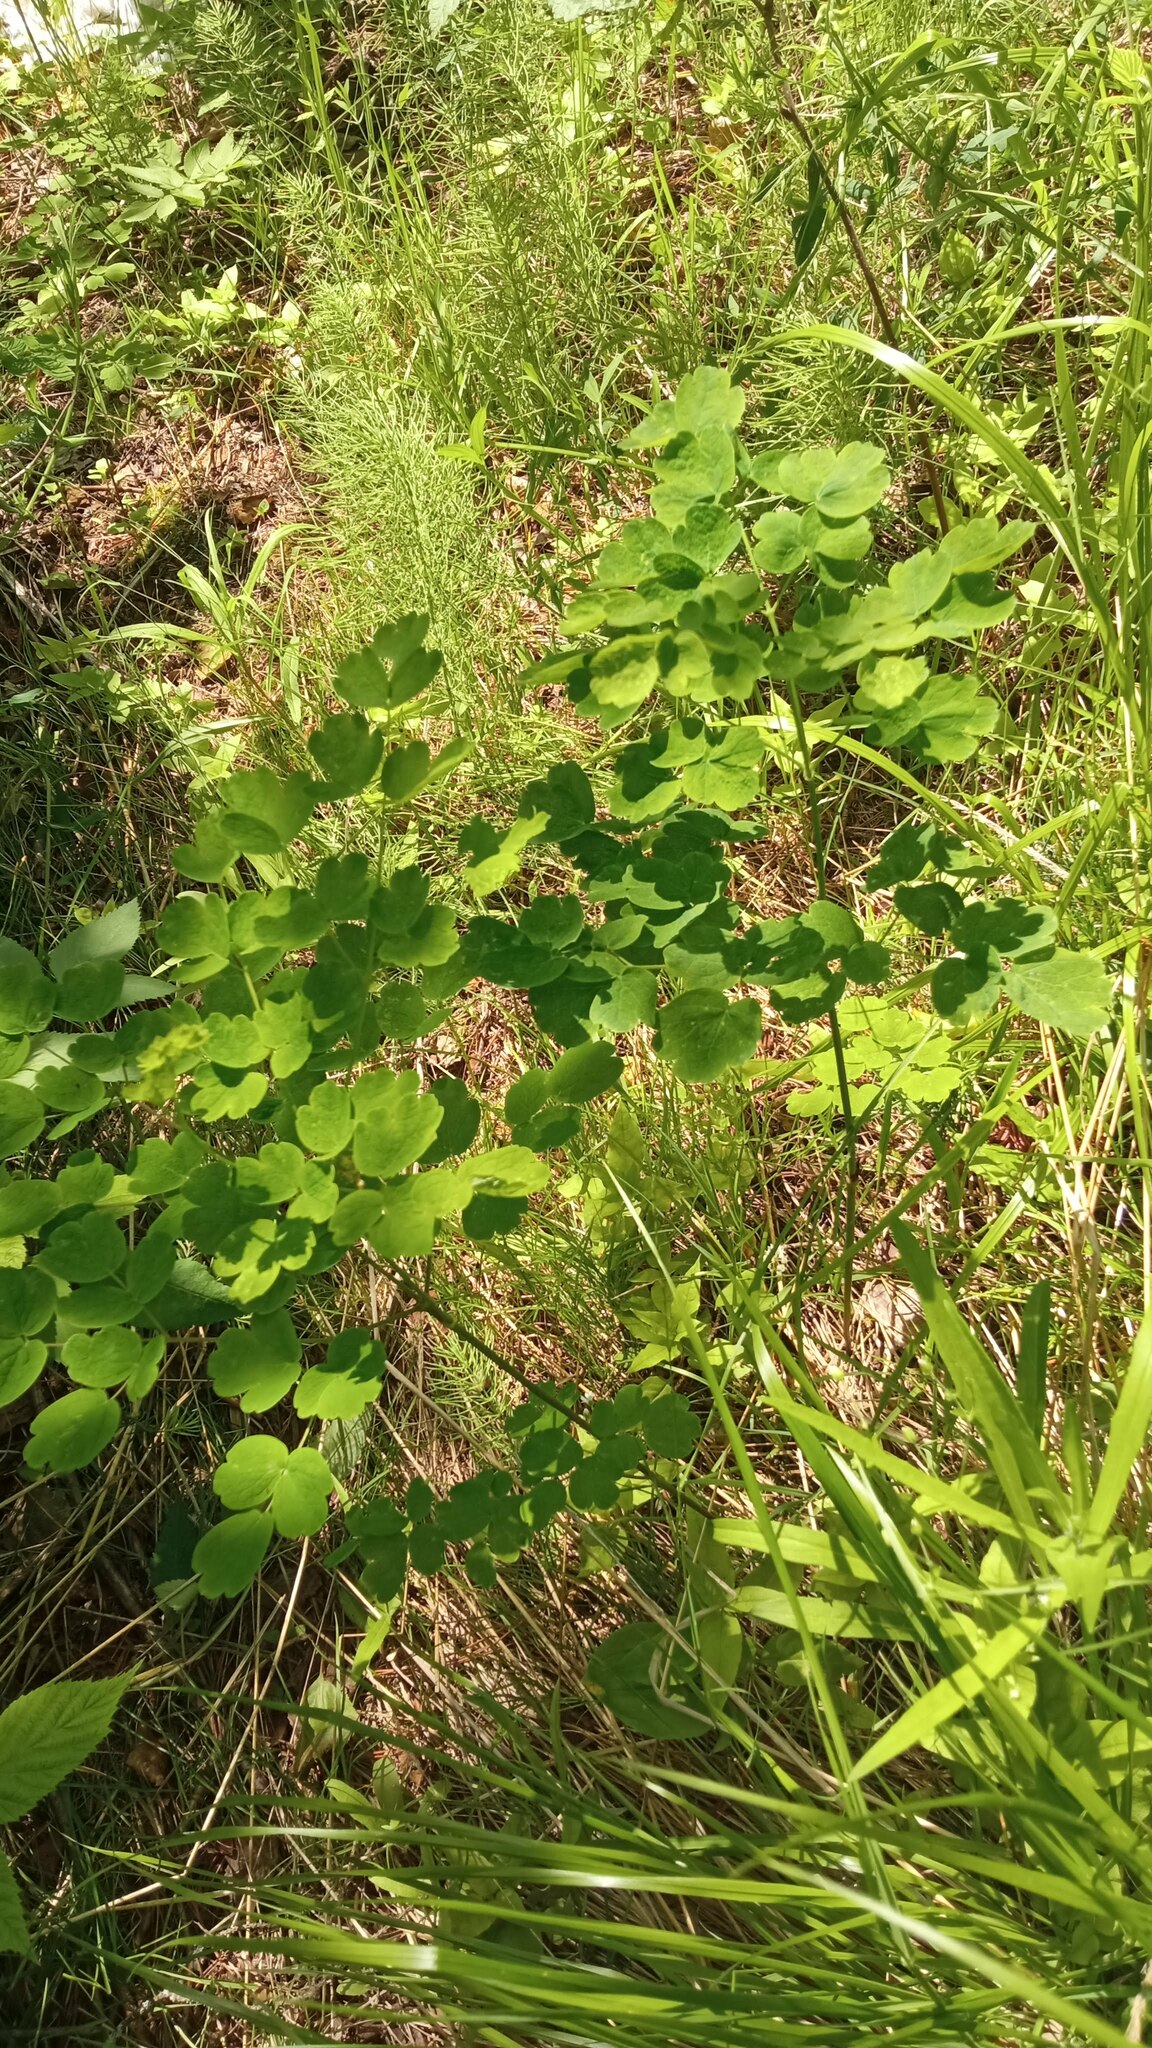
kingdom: Plantae
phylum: Tracheophyta
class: Magnoliopsida
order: Ranunculales
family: Ranunculaceae
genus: Thalictrum
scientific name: Thalictrum minus
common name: Lesser meadow-rue
